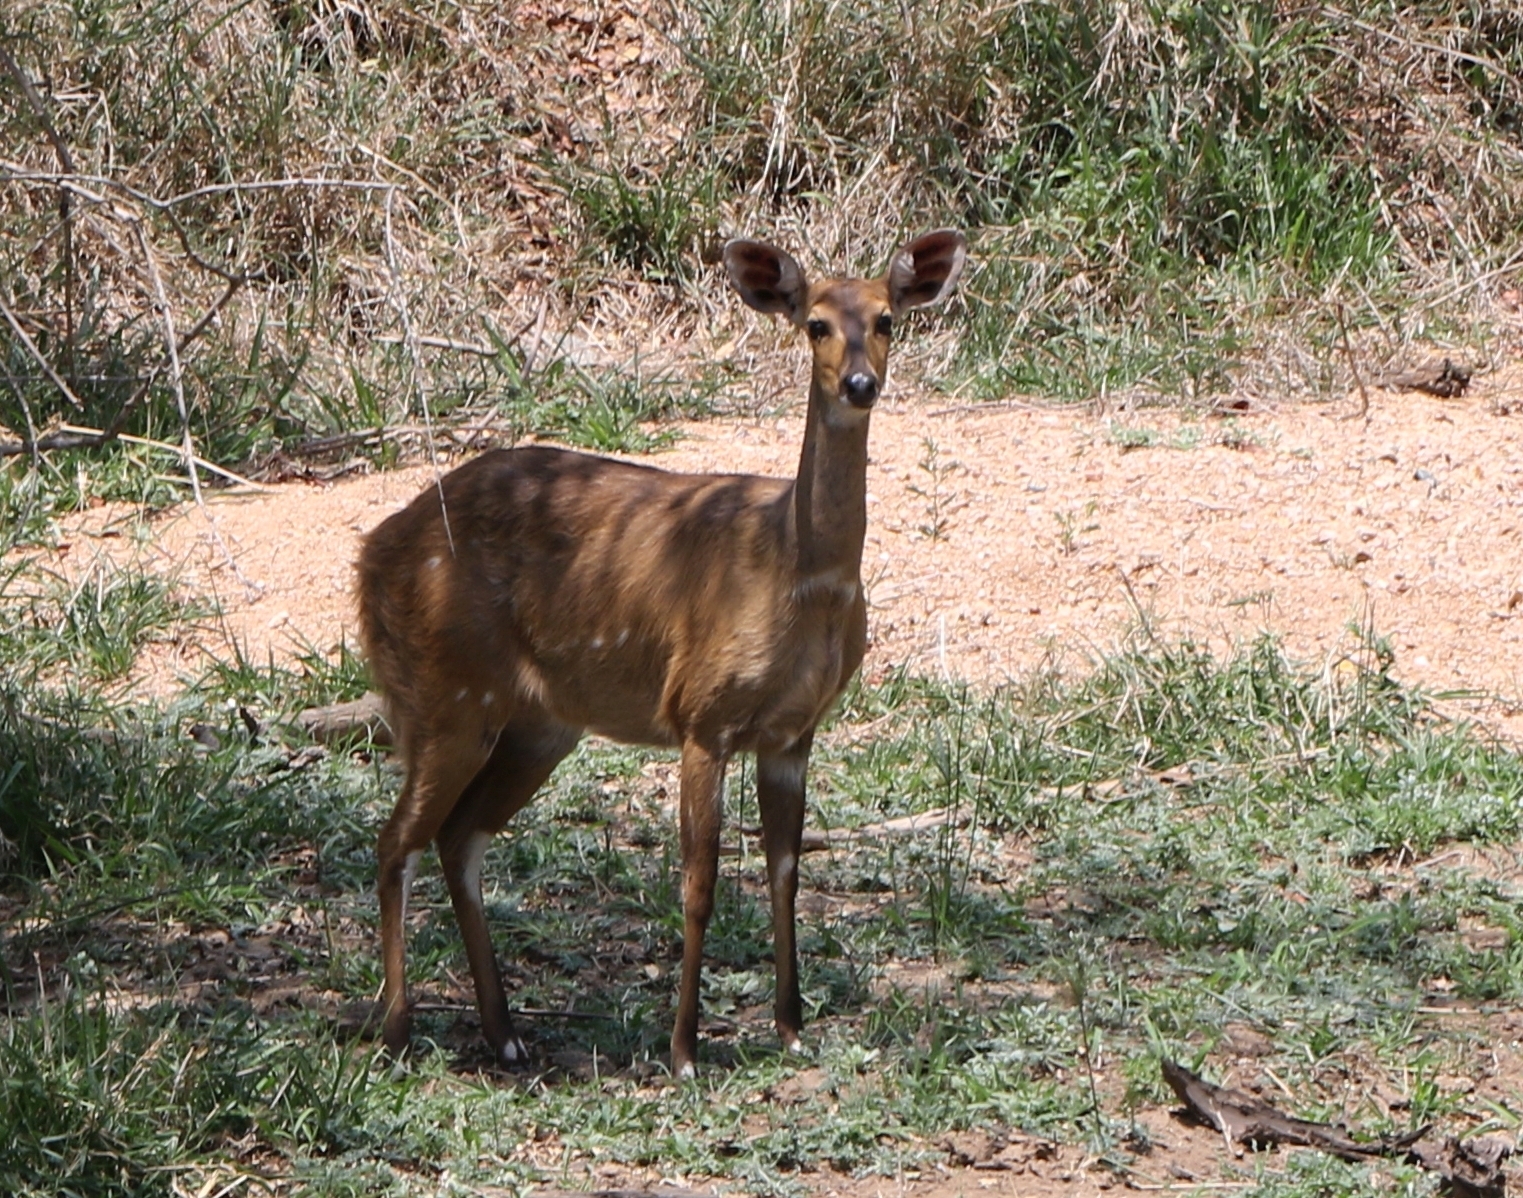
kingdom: Animalia
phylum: Chordata
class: Mammalia
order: Artiodactyla
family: Bovidae
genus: Tragelaphus
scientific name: Tragelaphus scriptus
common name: Bushbuck
